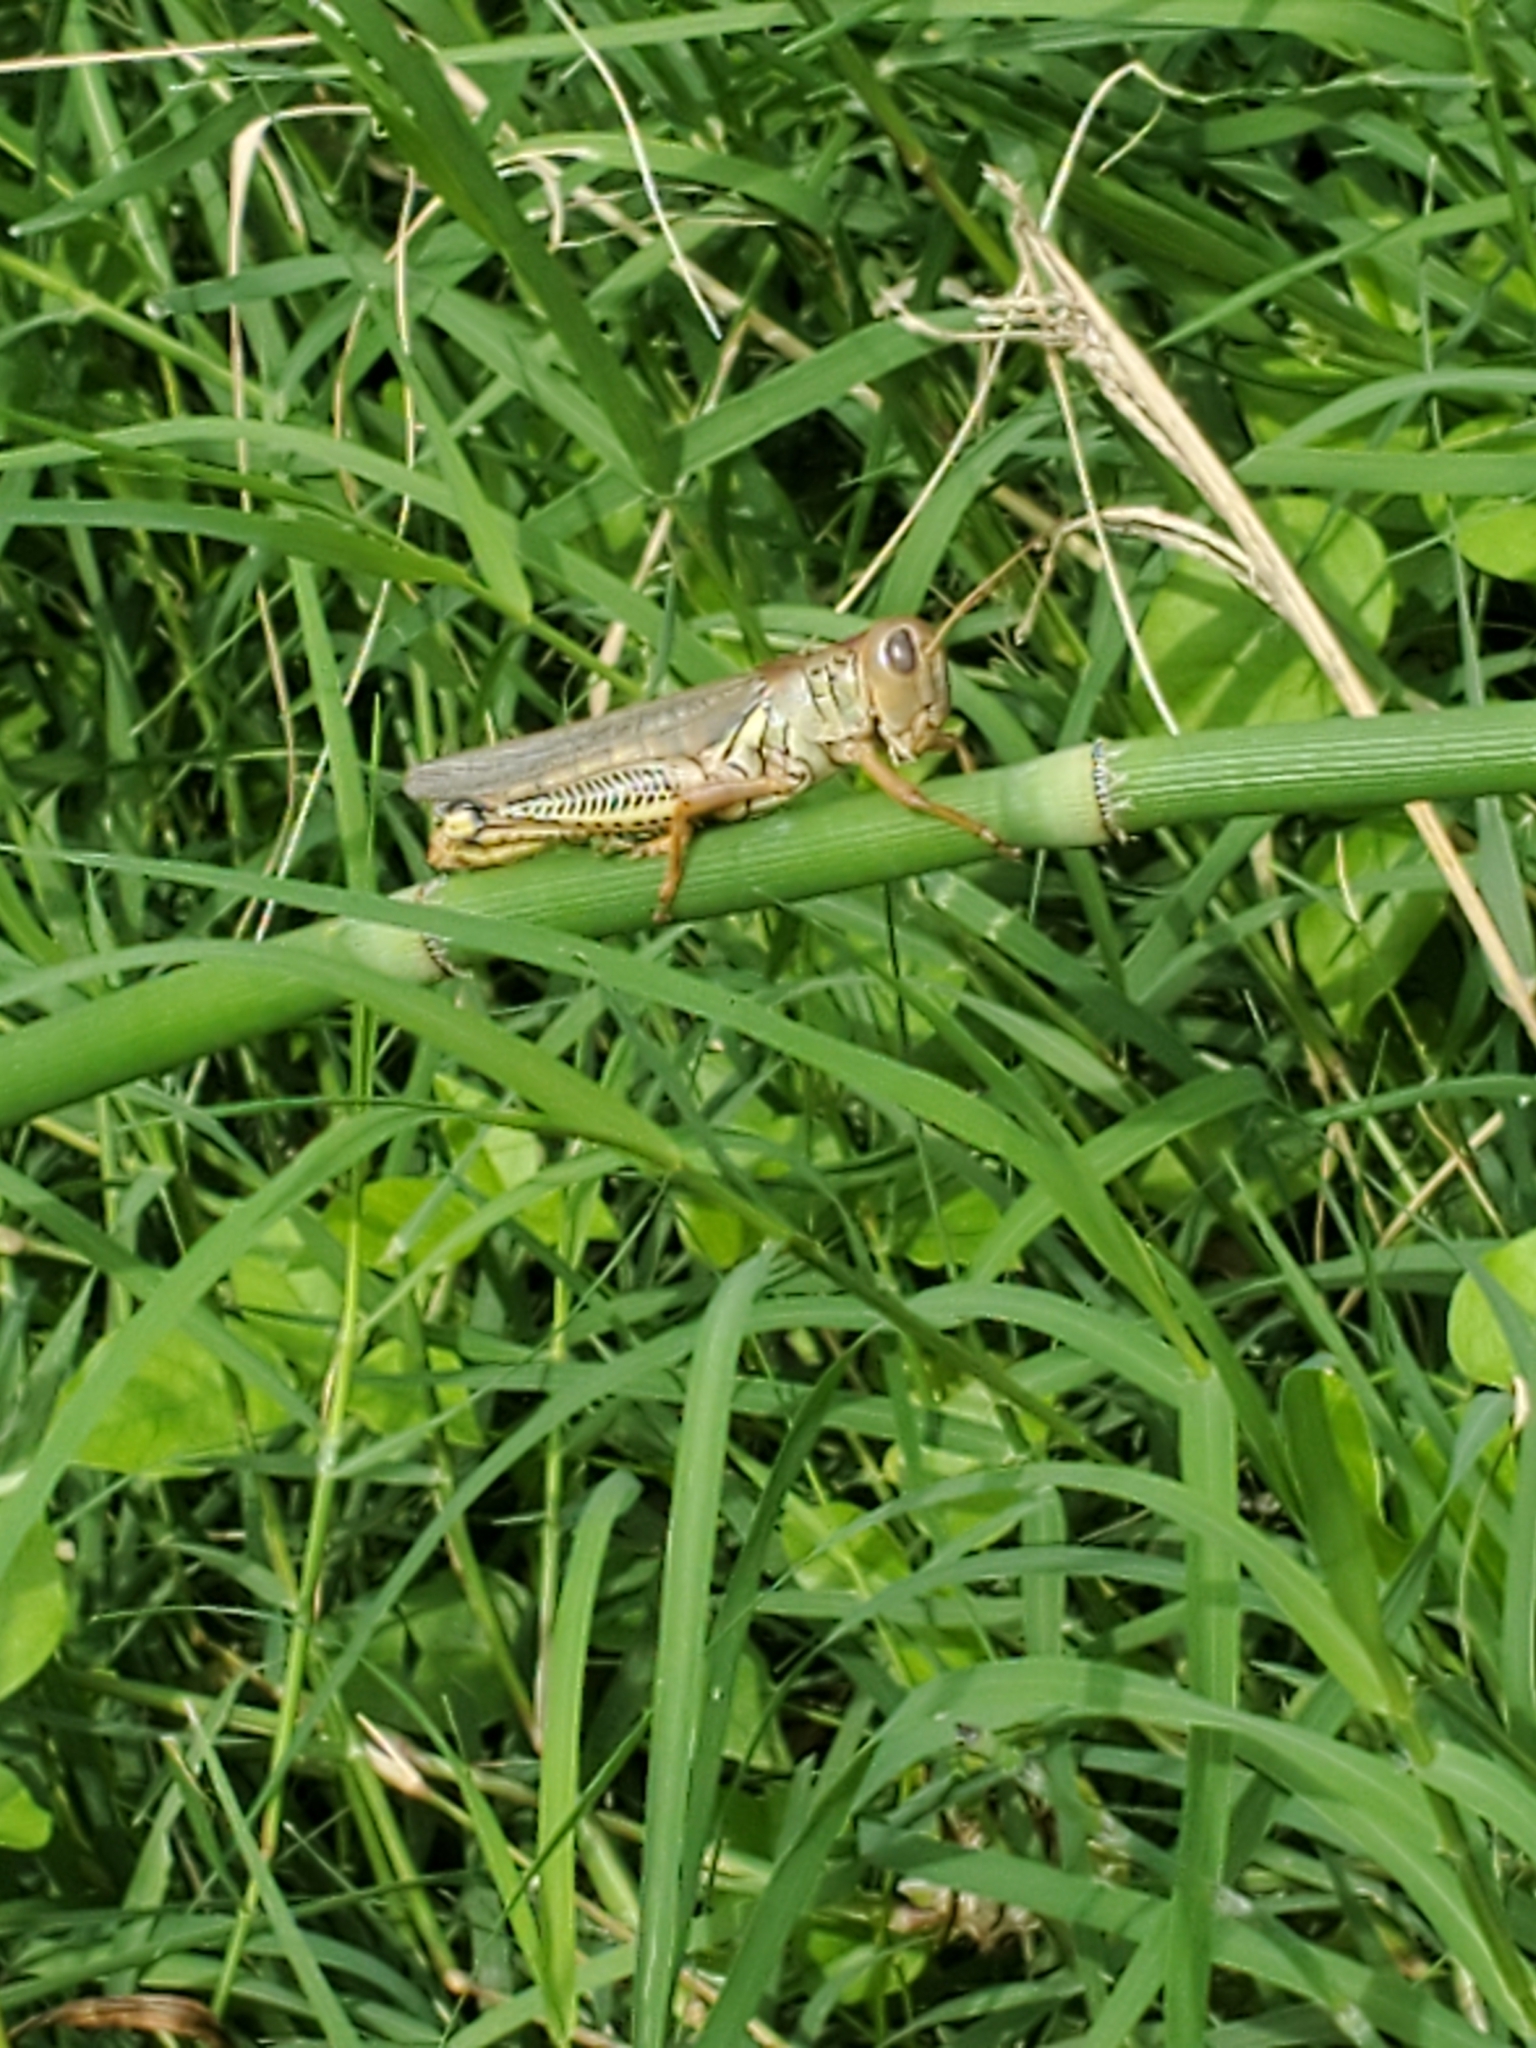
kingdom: Animalia
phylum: Arthropoda
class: Insecta
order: Orthoptera
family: Acrididae
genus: Melanoplus
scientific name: Melanoplus differentialis
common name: Differential grasshopper
